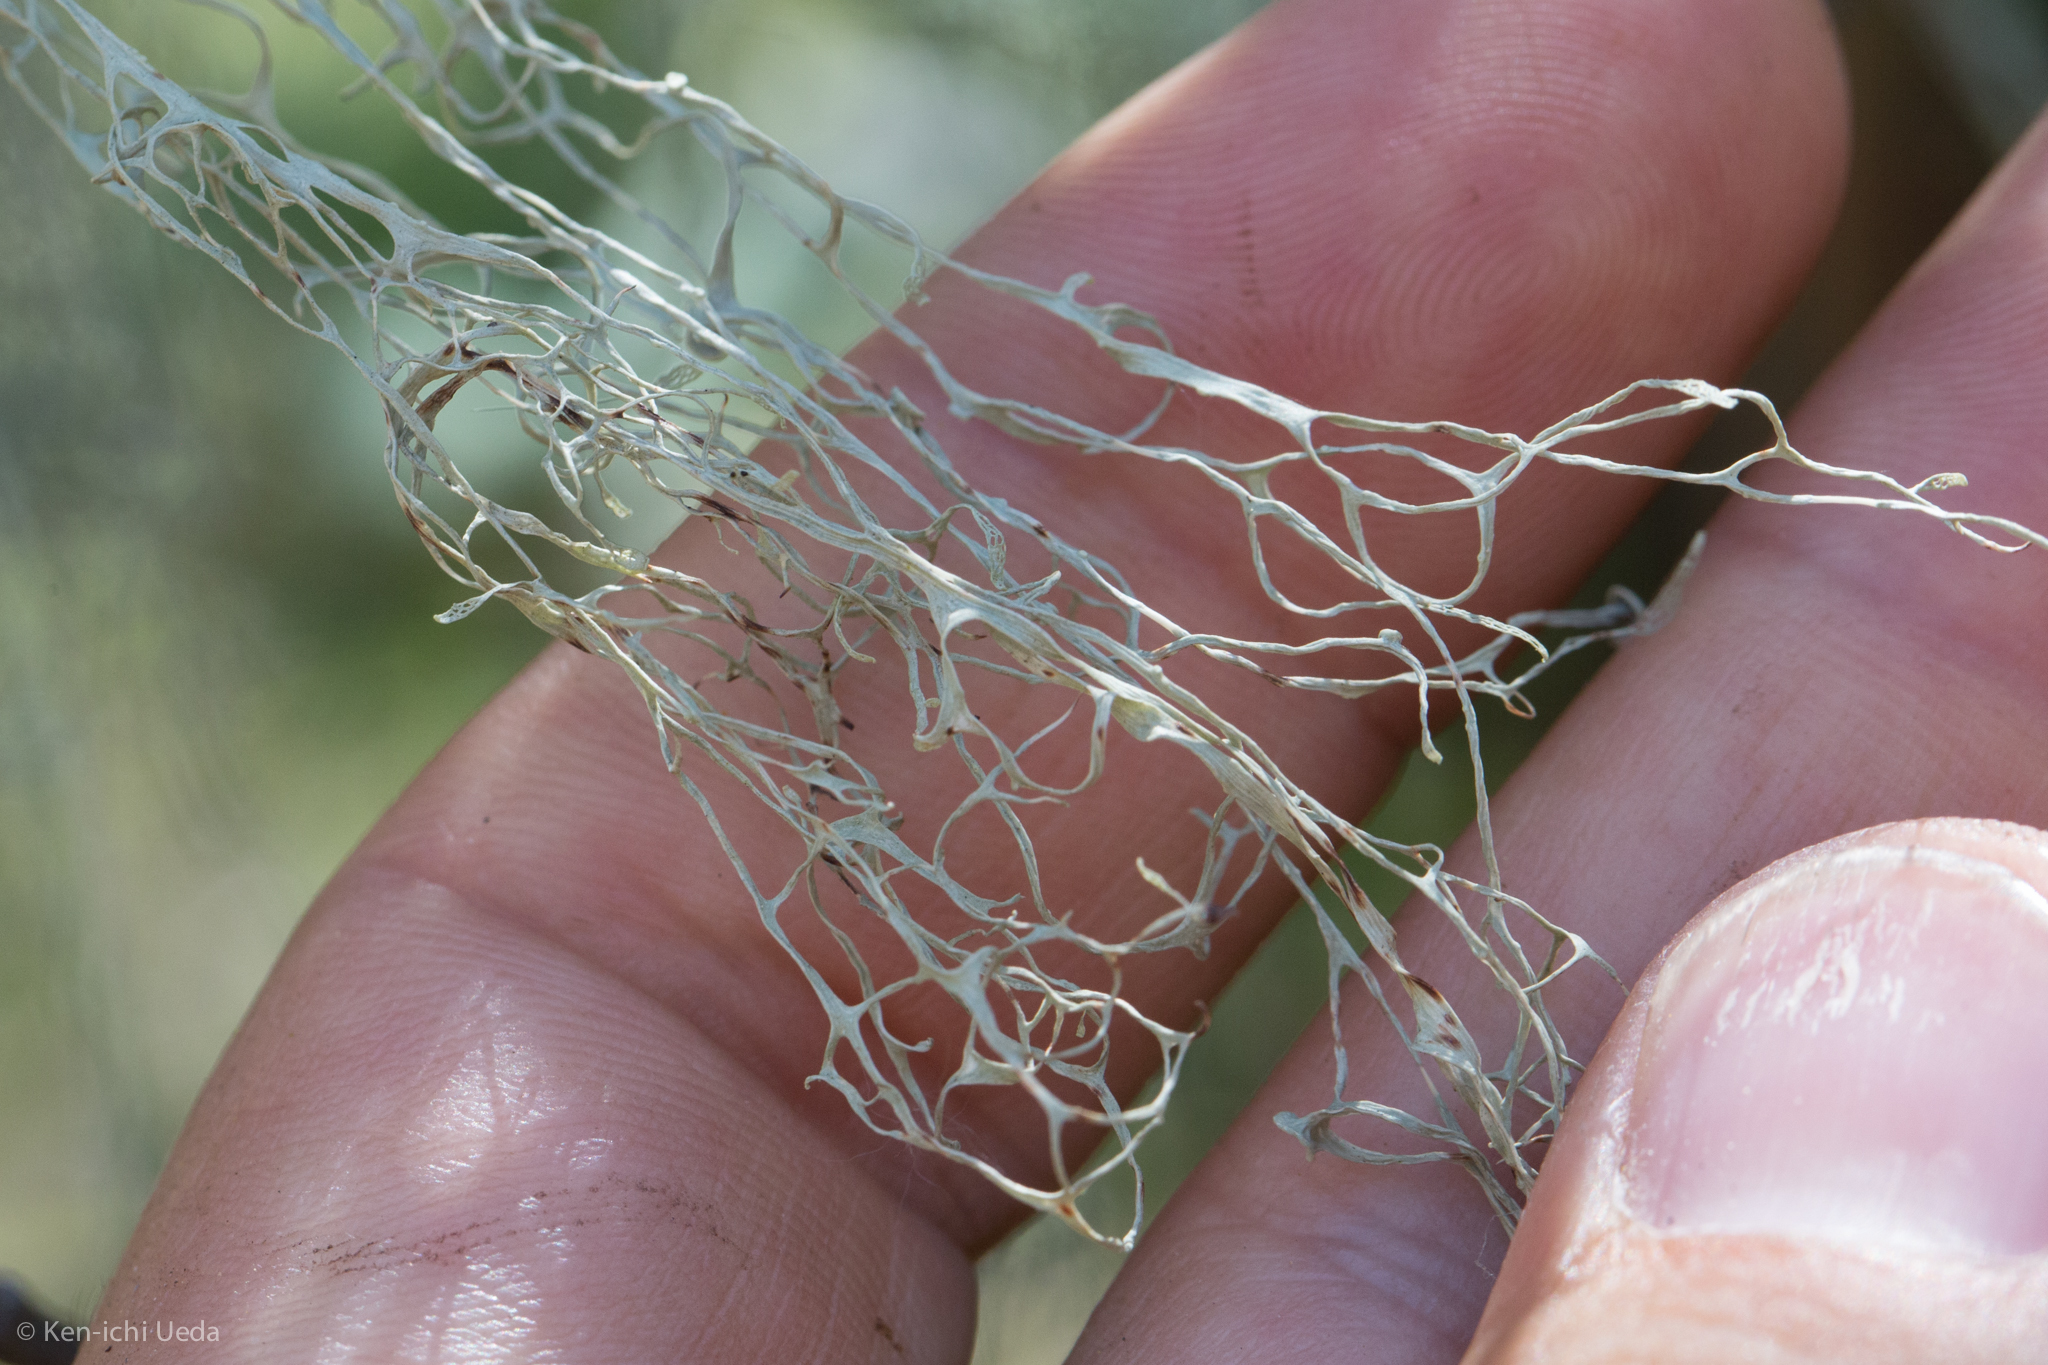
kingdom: Fungi
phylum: Ascomycota
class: Lecanoromycetes
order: Lecanorales
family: Ramalinaceae
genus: Ramalina
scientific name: Ramalina menziesii
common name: Lace lichen
